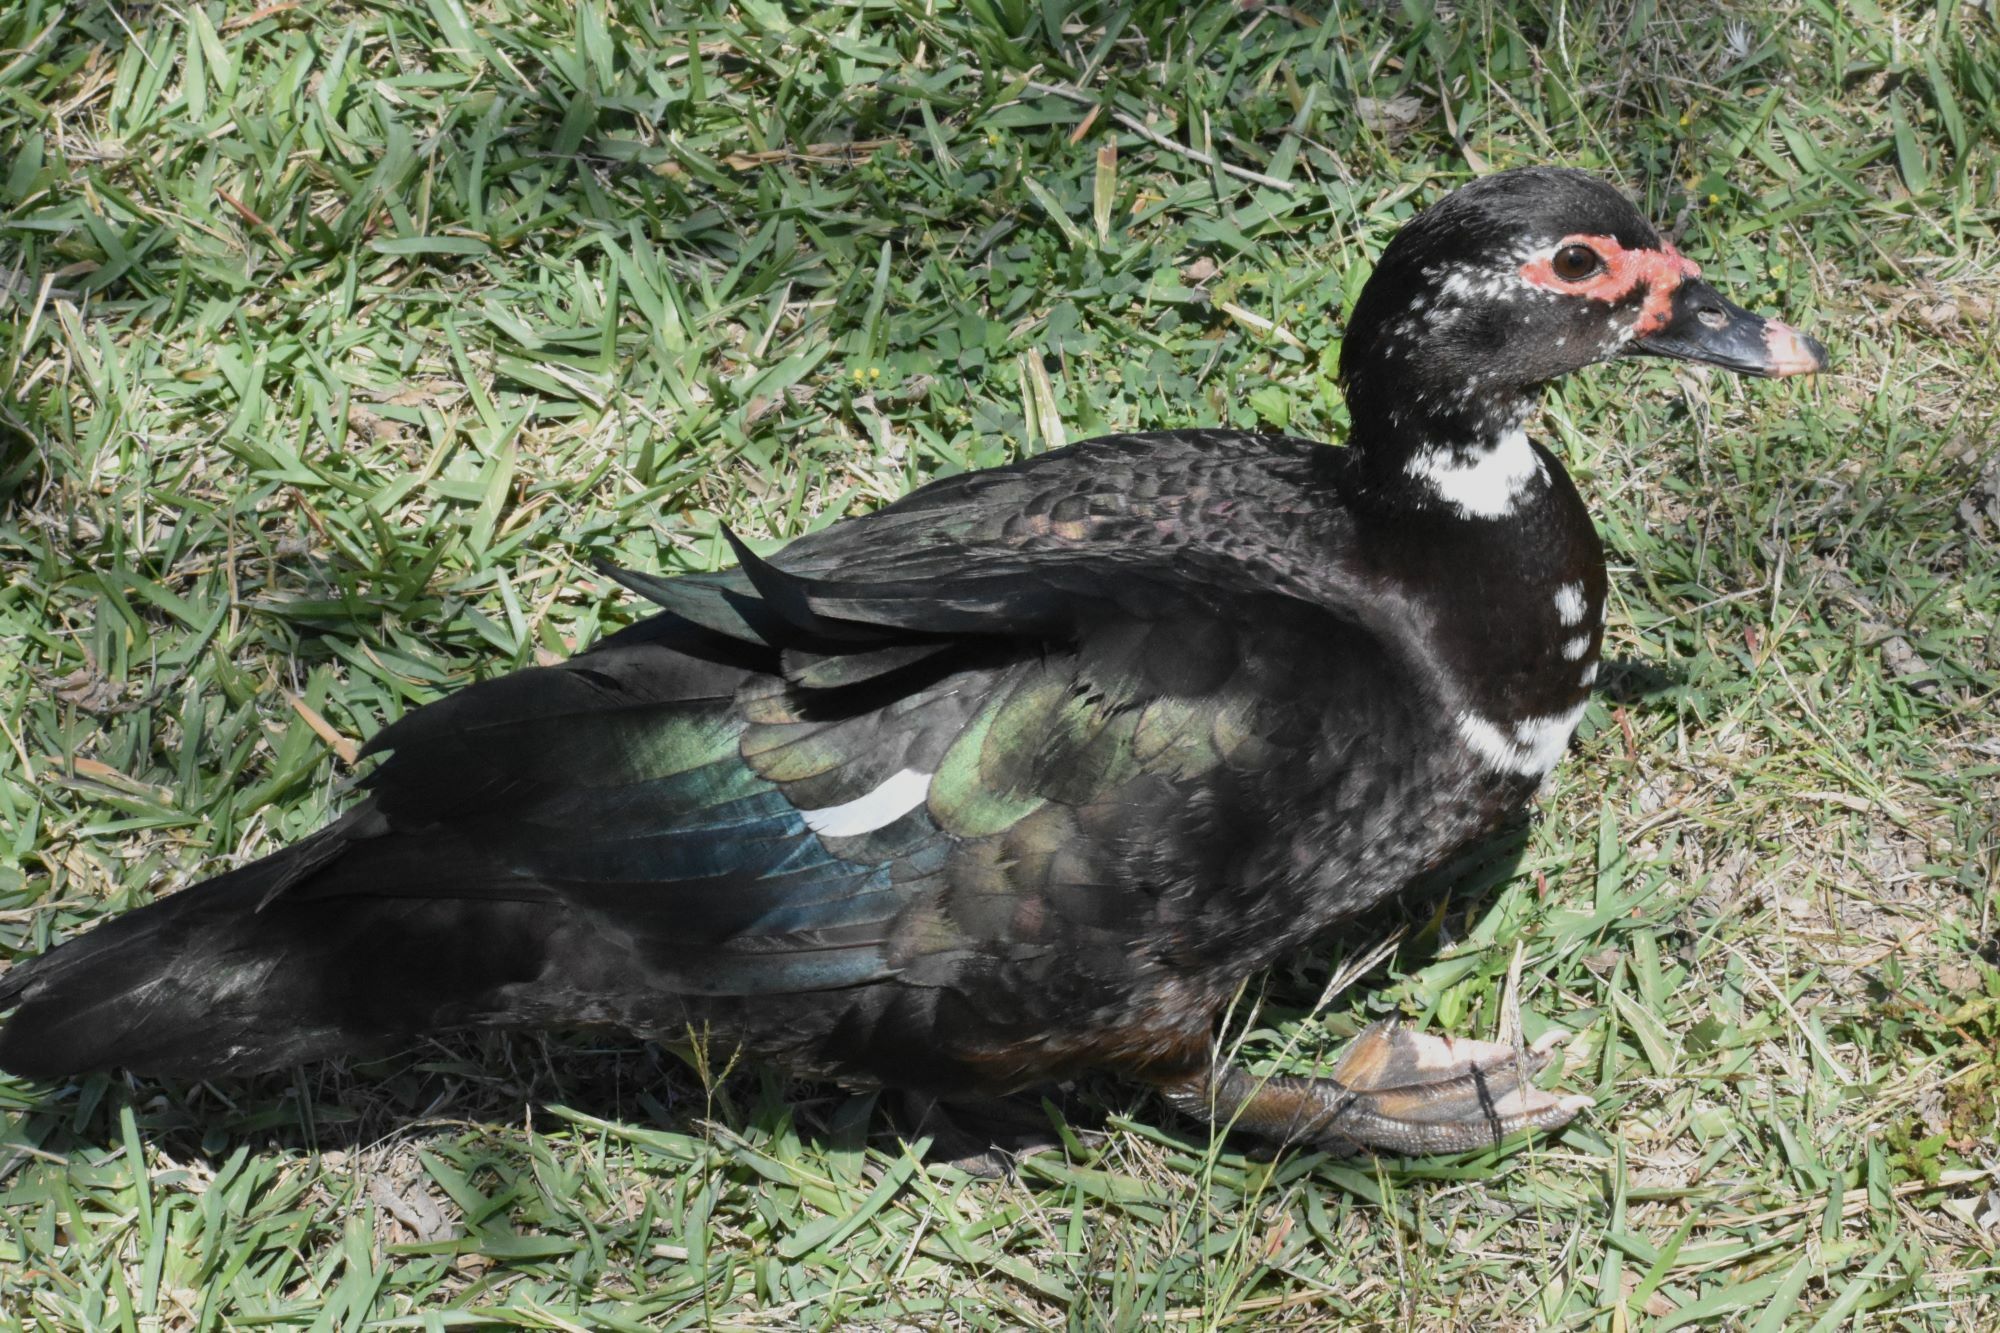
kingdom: Animalia
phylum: Chordata
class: Aves
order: Anseriformes
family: Anatidae
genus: Cairina
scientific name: Cairina moschata
